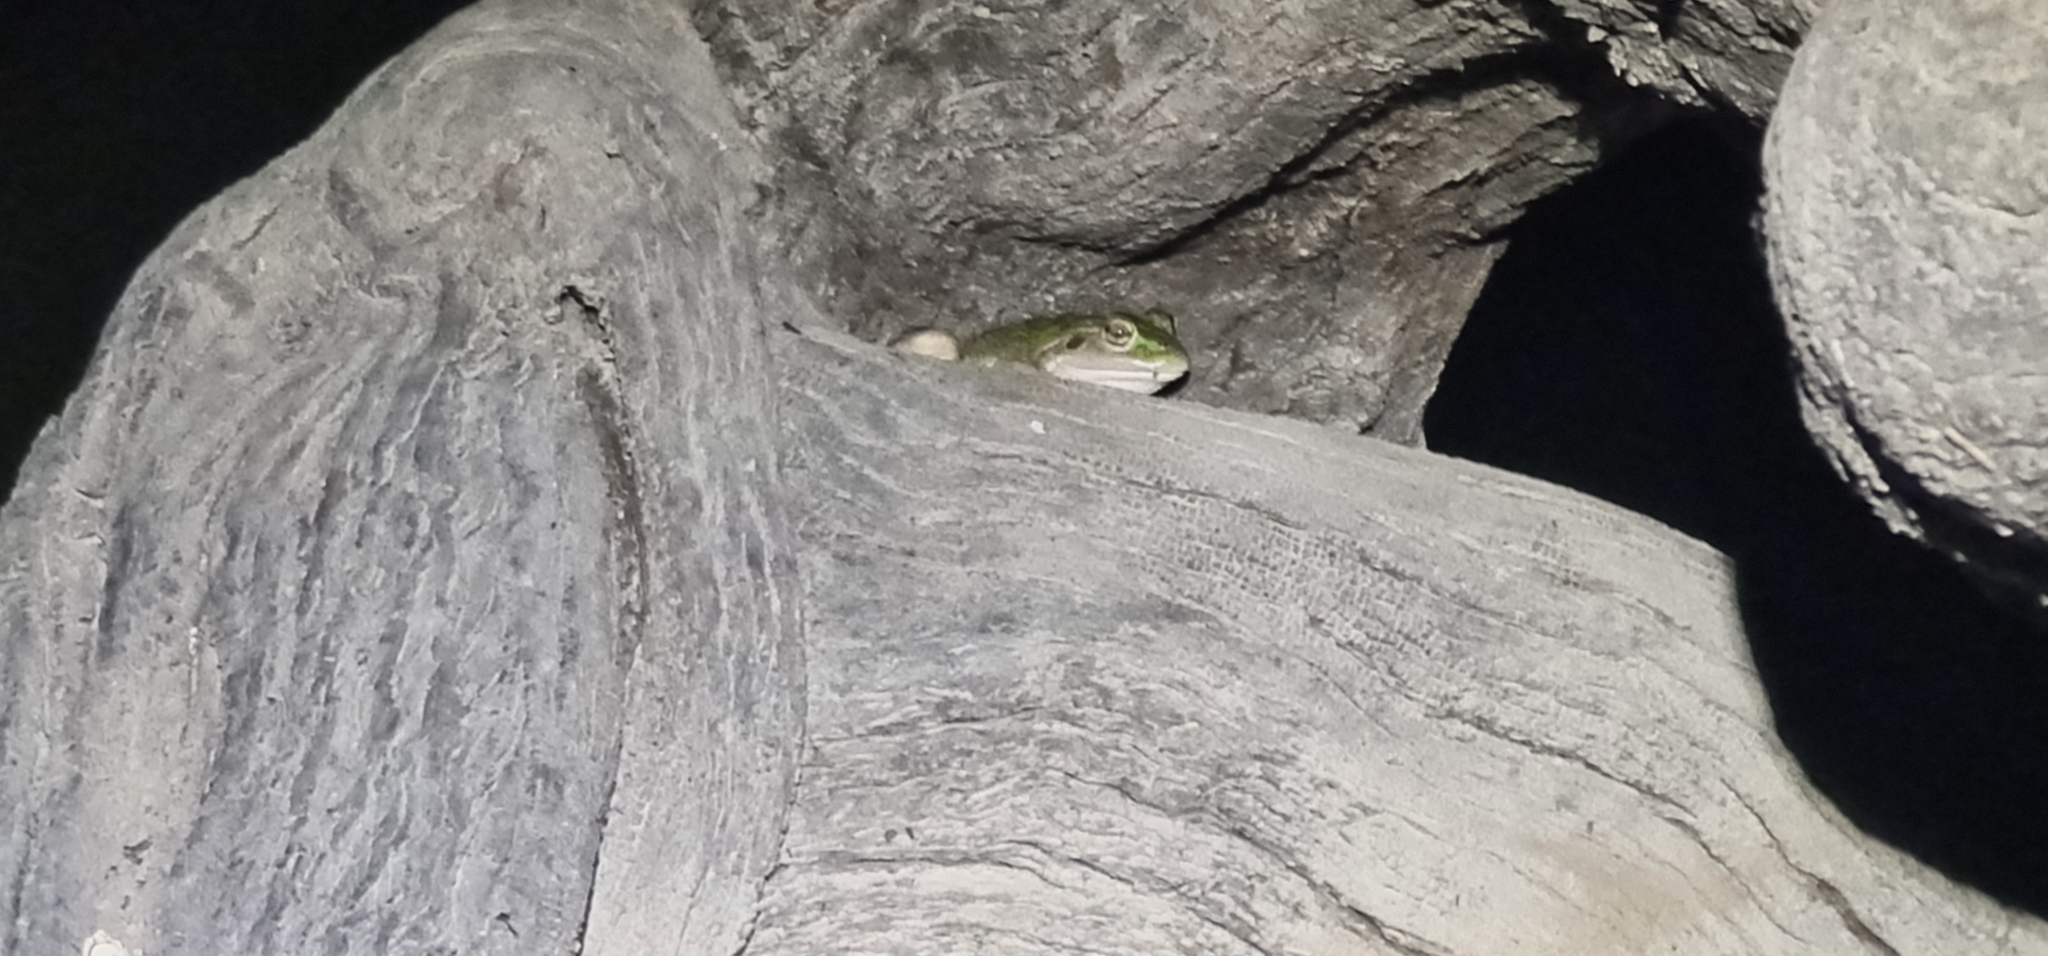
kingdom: Animalia
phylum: Chordata
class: Amphibia
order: Anura
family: Pelodryadidae
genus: Ranoidea
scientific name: Ranoidea raniformis
